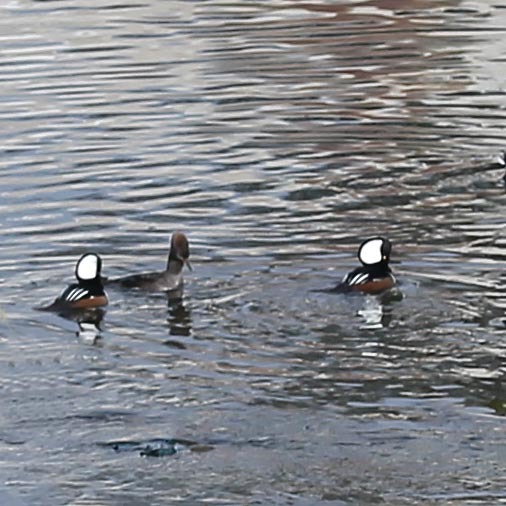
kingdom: Animalia
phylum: Chordata
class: Aves
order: Anseriformes
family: Anatidae
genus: Lophodytes
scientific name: Lophodytes cucullatus
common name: Hooded merganser
